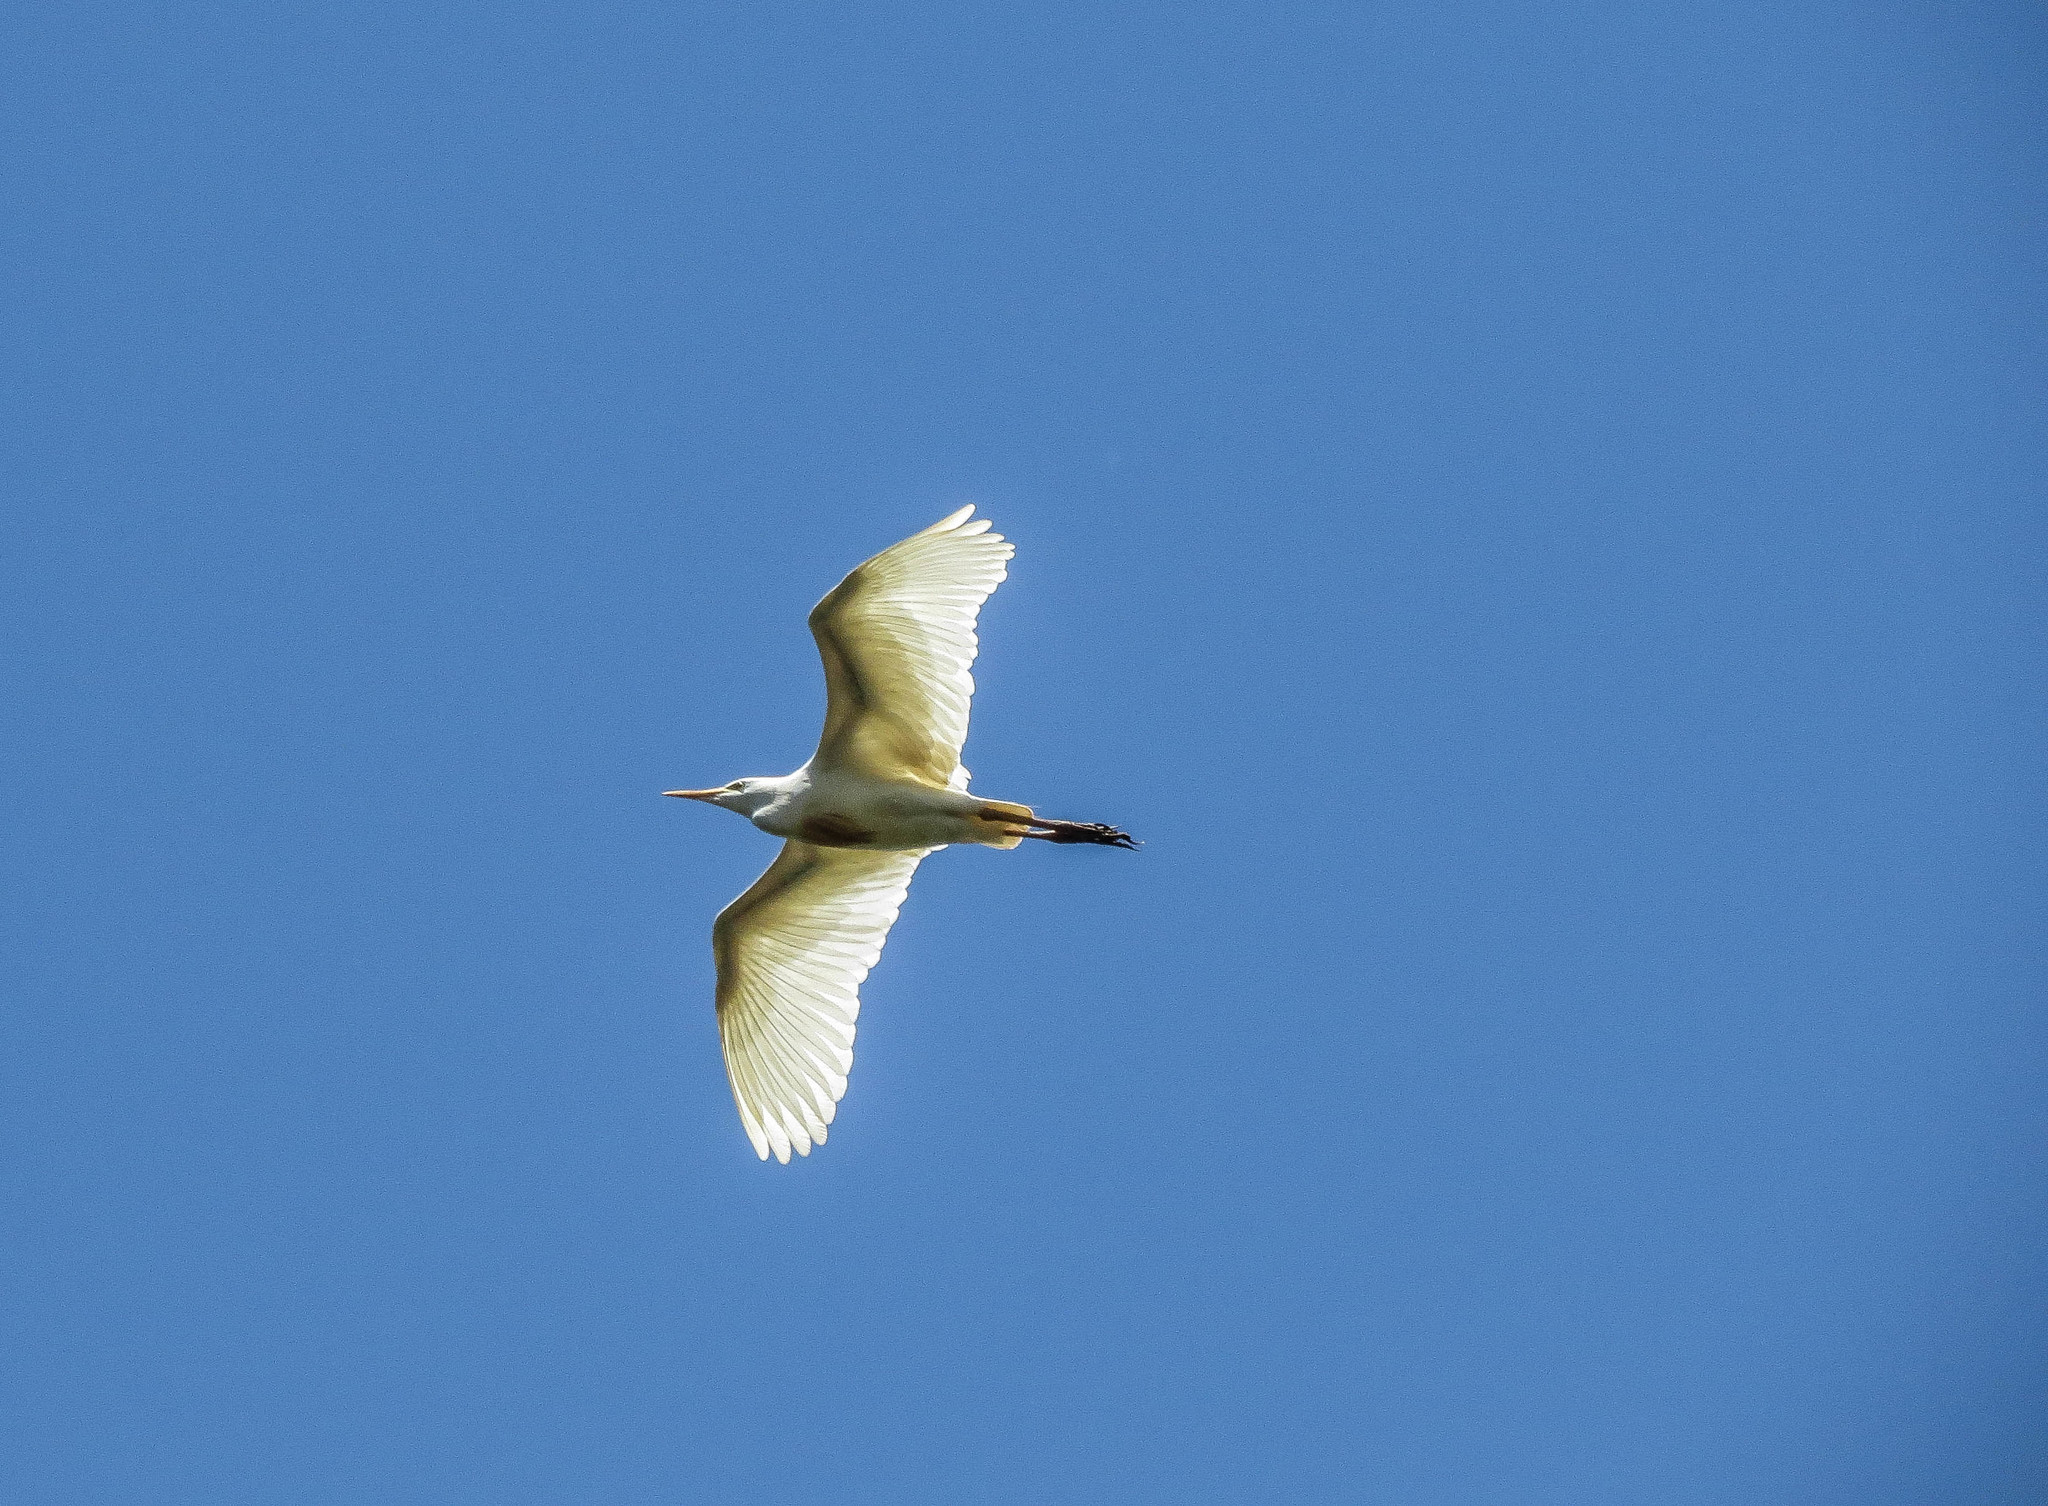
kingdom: Animalia
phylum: Chordata
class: Aves
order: Pelecaniformes
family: Ardeidae
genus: Bubulcus
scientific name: Bubulcus ibis
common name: Cattle egret
